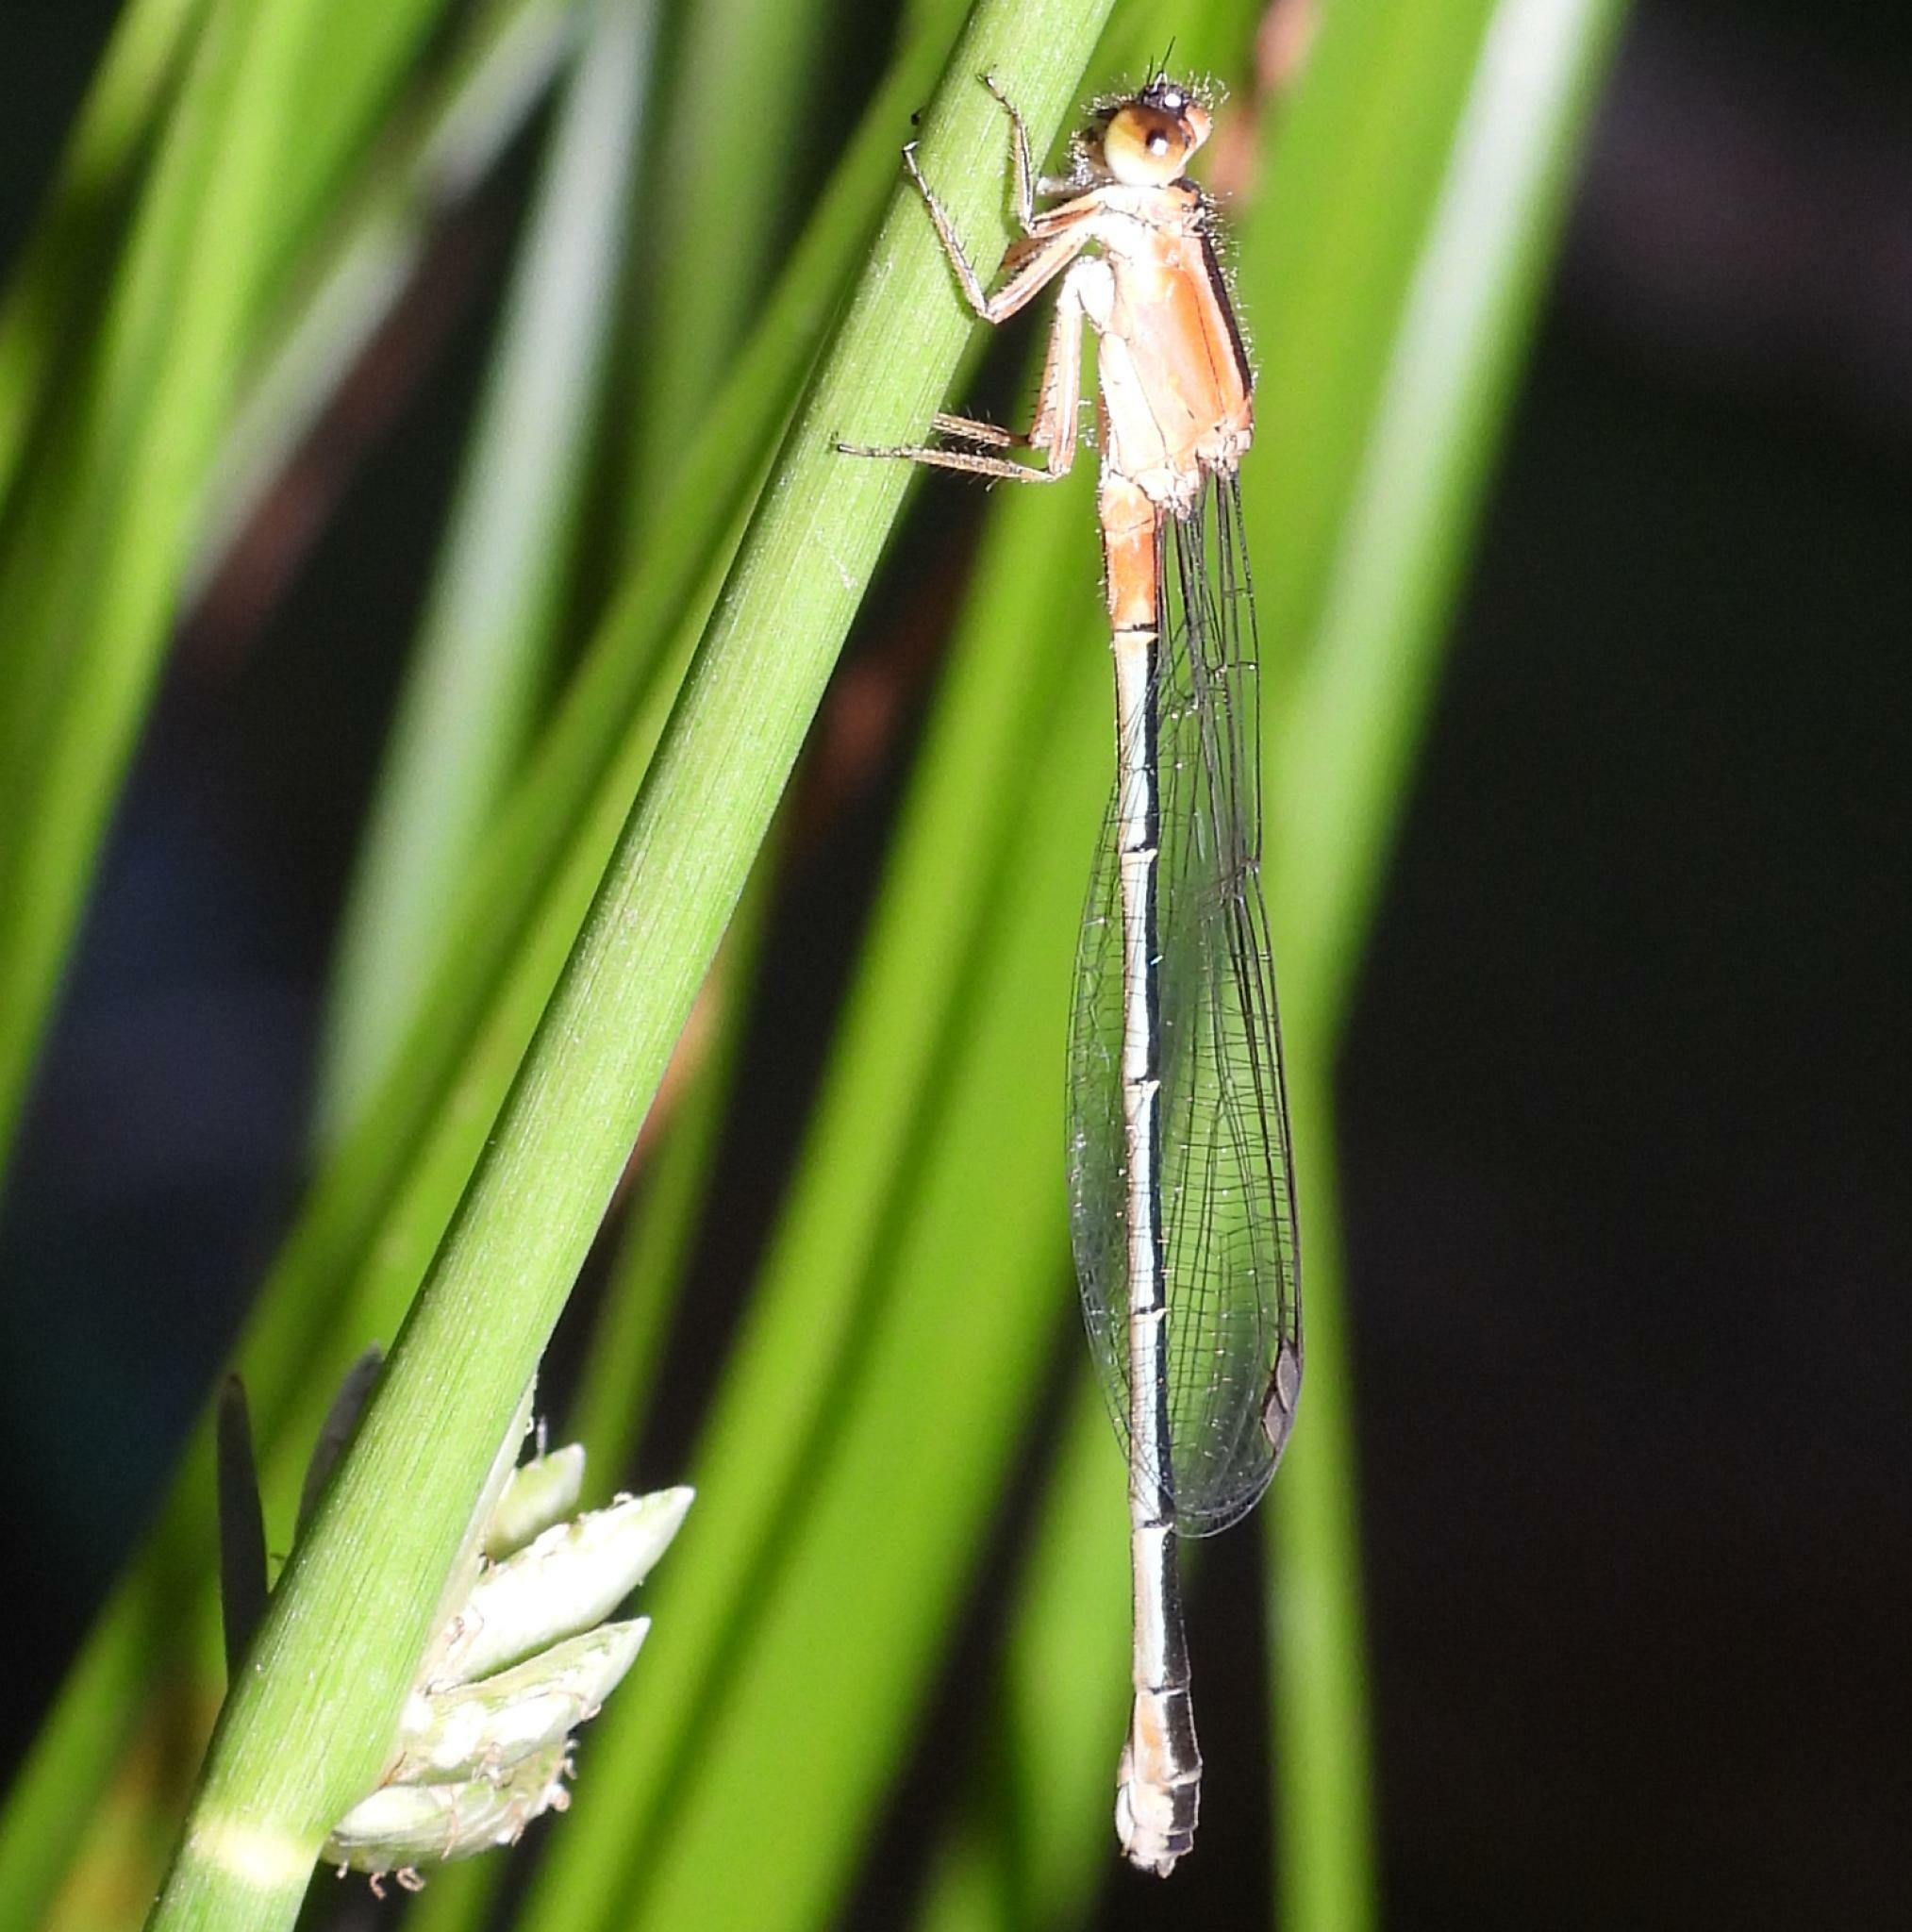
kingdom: Animalia
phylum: Arthropoda
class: Insecta
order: Odonata
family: Coenagrionidae
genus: Ischnura
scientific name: Ischnura senegalensis
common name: Tropical bluetail
